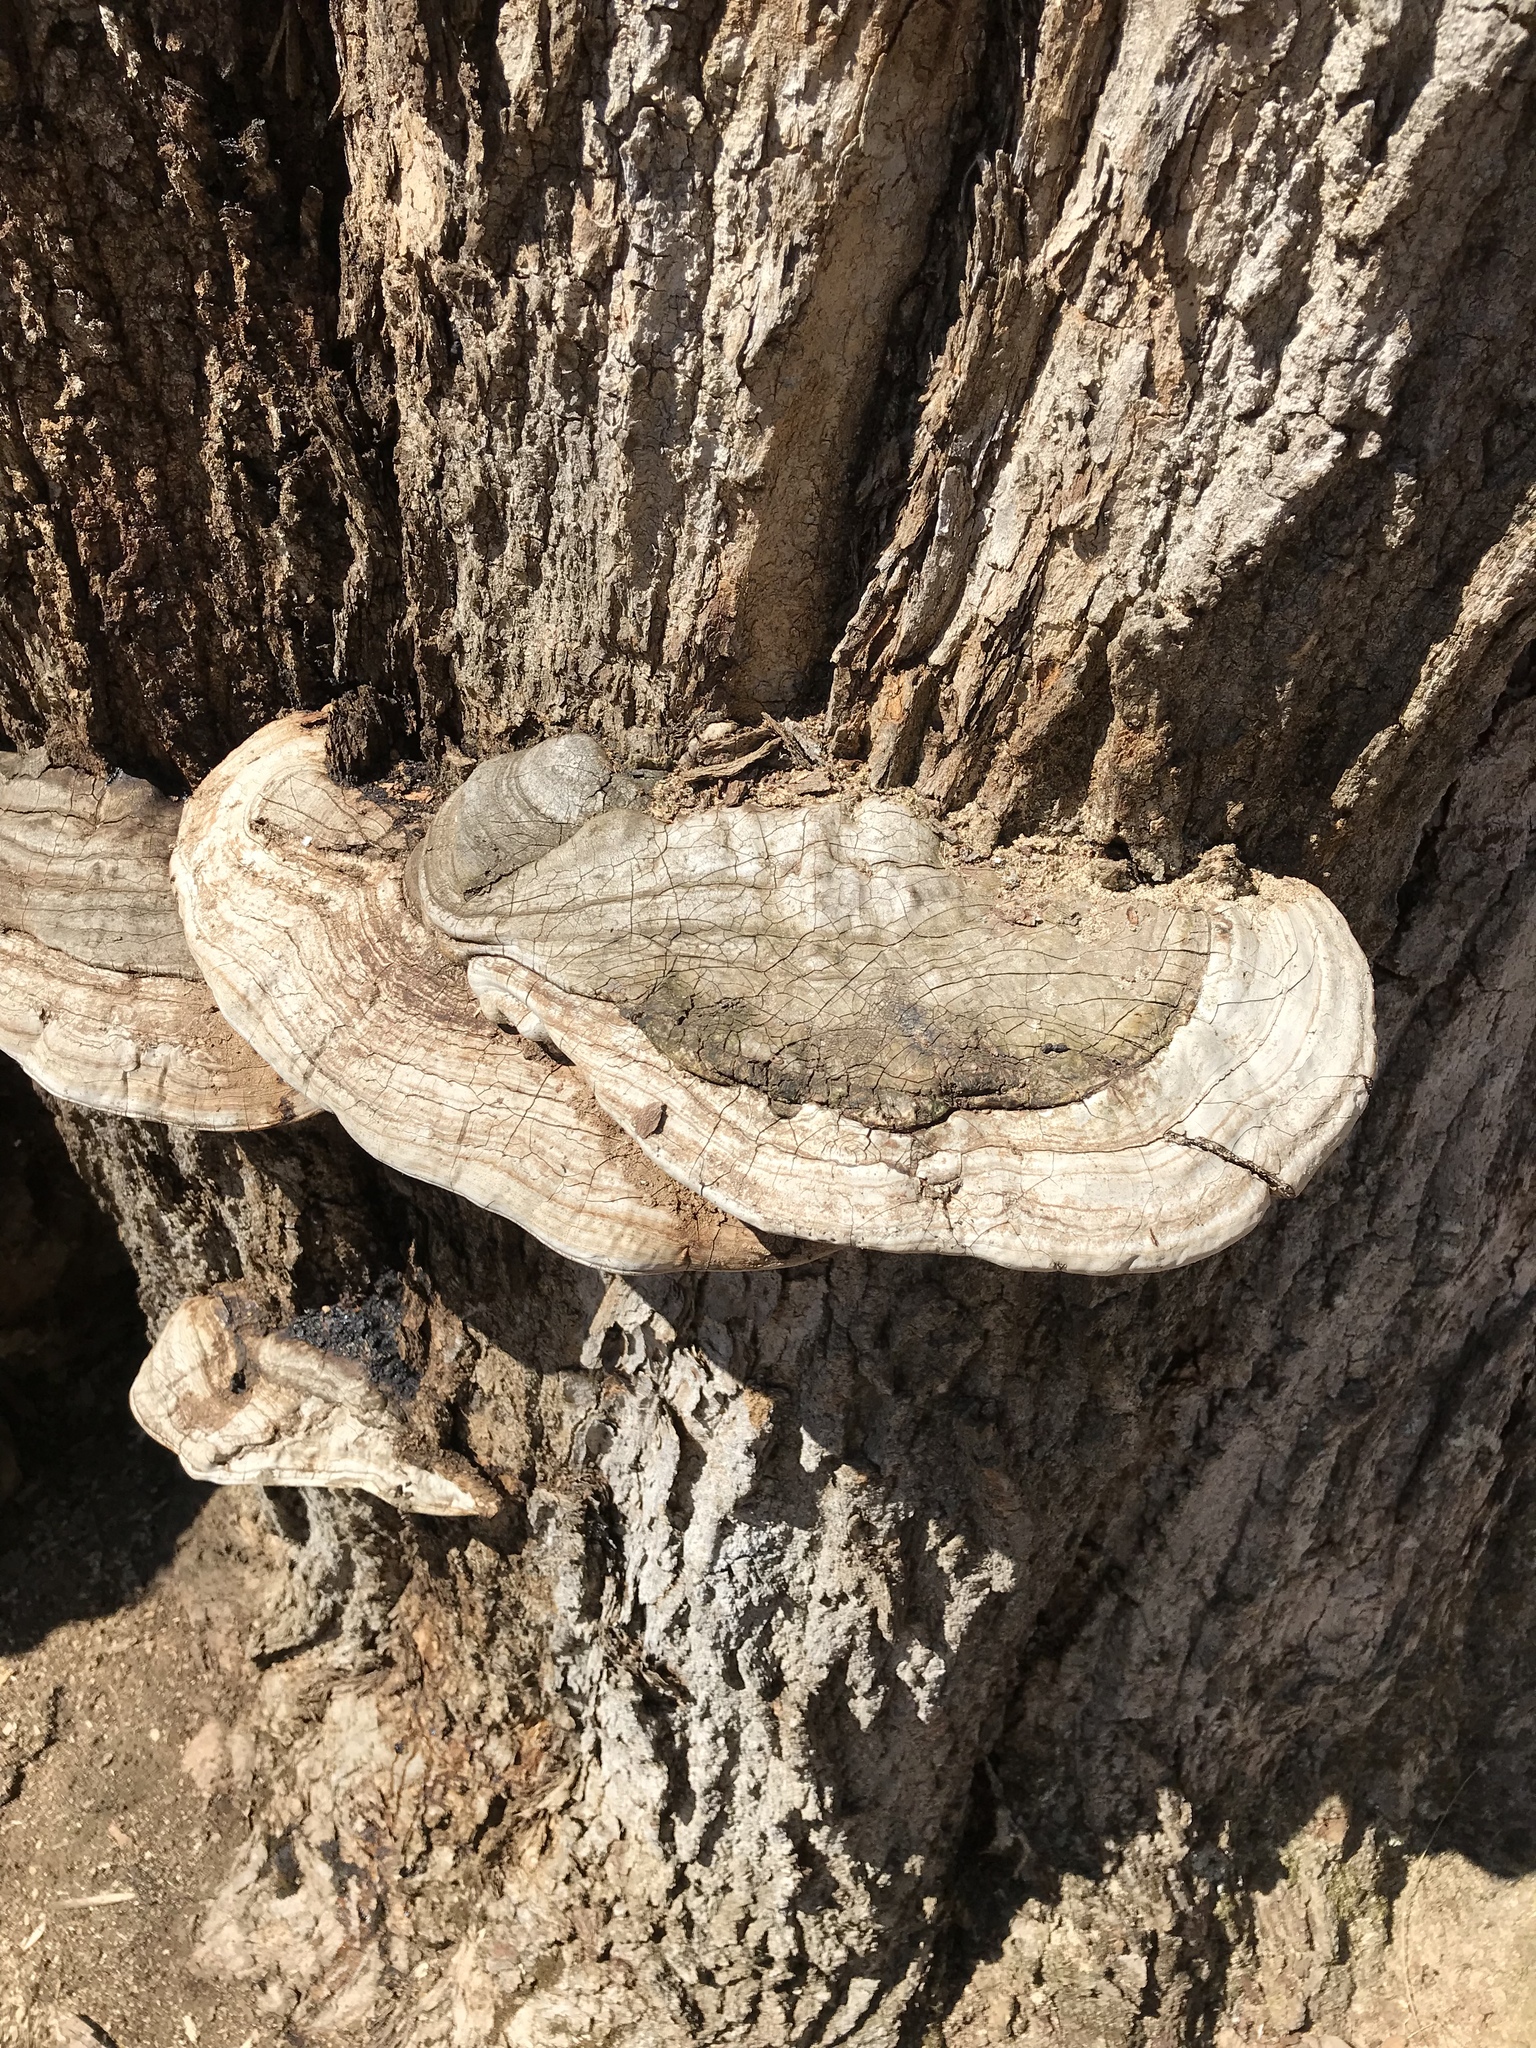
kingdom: Fungi
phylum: Basidiomycota
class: Agaricomycetes
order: Polyporales
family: Polyporaceae
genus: Ganoderma
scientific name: Ganoderma applanatum
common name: Artist's bracket
